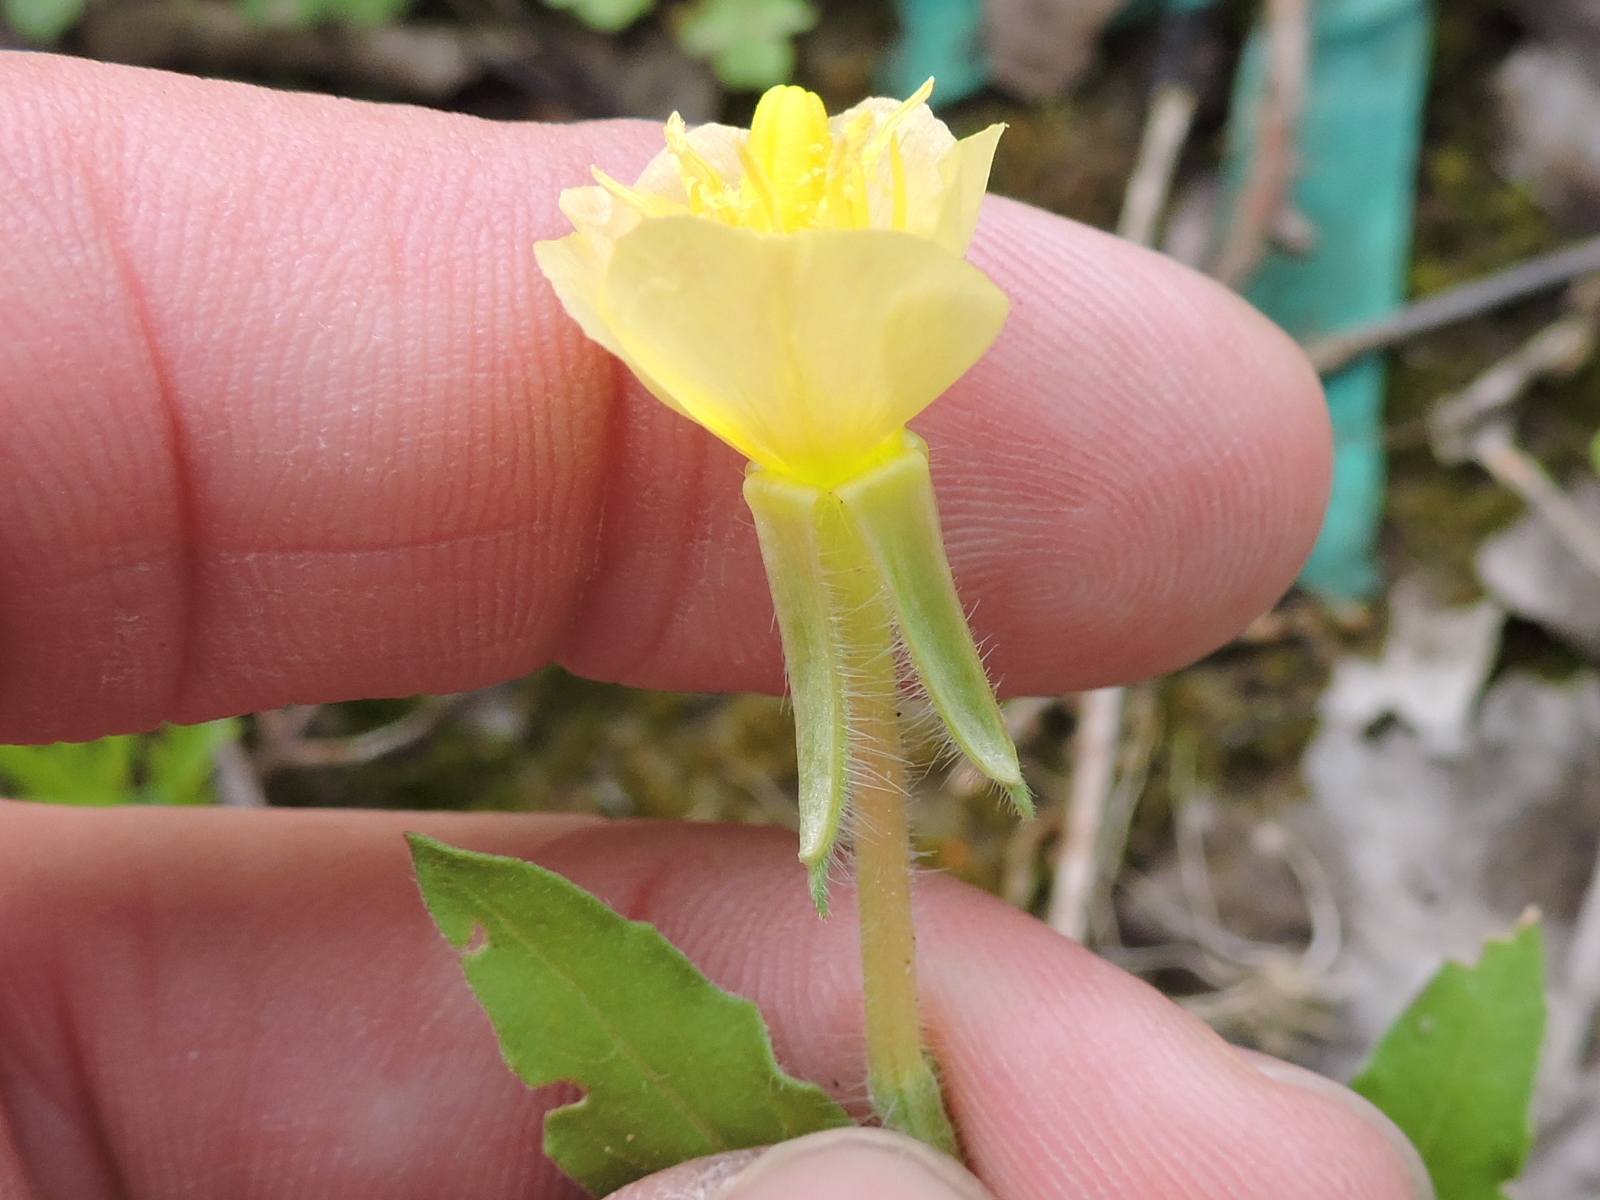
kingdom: Plantae
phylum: Tracheophyta
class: Magnoliopsida
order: Myrtales
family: Onagraceae
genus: Oenothera
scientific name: Oenothera laciniata
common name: Cut-leaved evening-primrose
